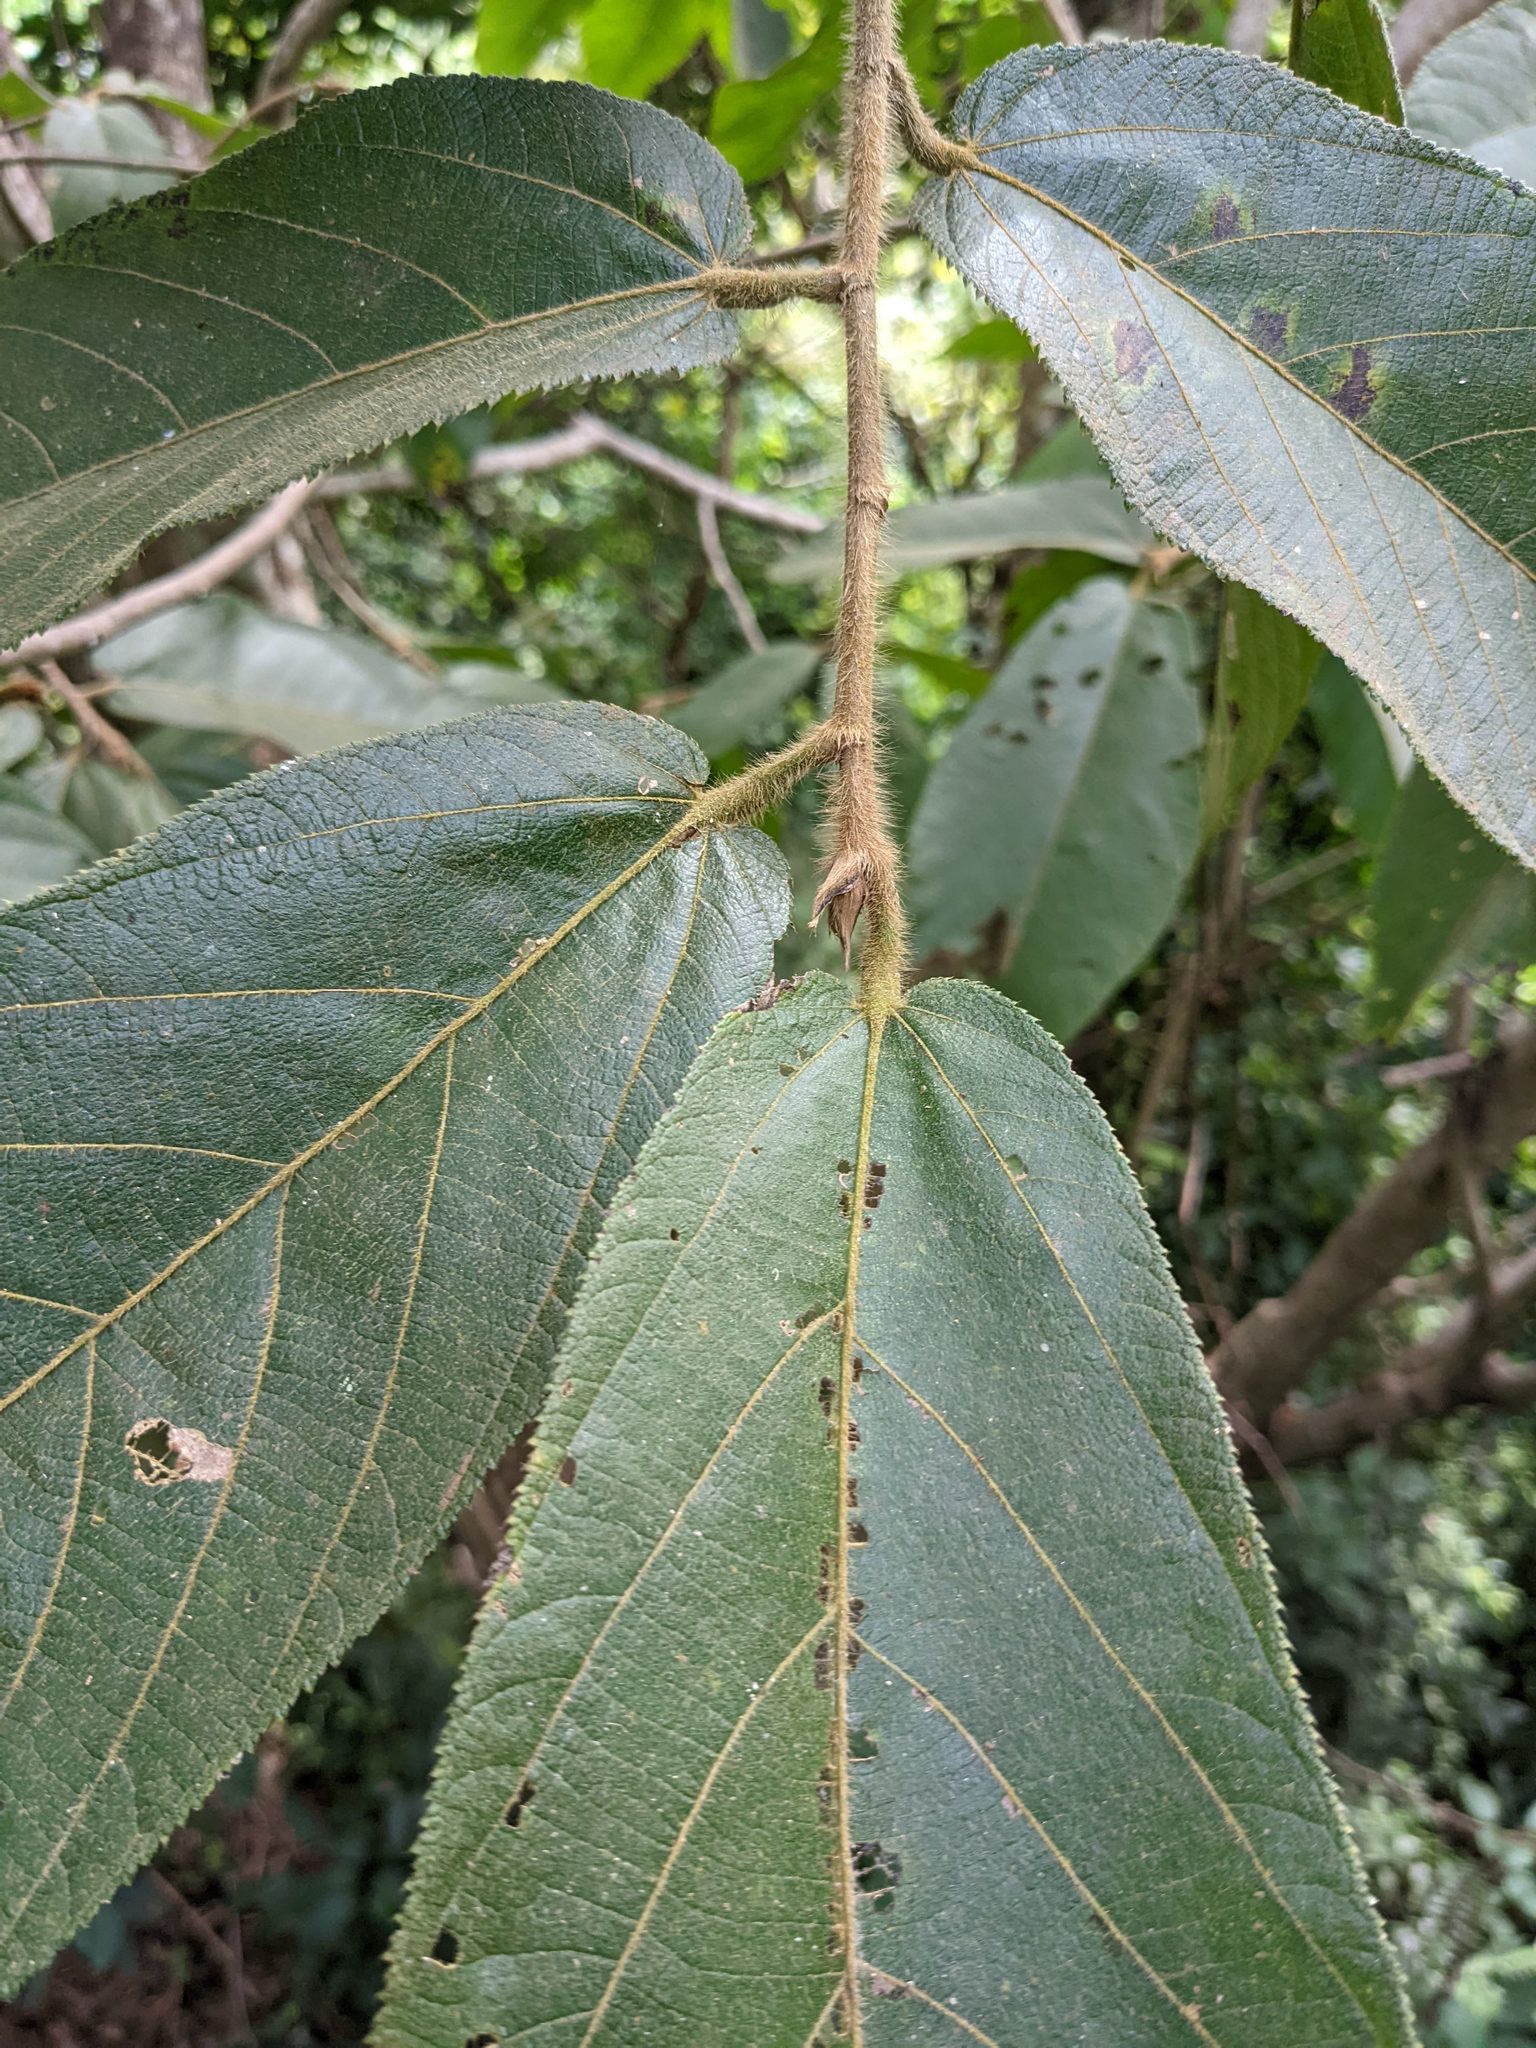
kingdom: Plantae
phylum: Tracheophyta
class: Magnoliopsida
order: Malvales
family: Malvaceae
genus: Apeiba
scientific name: Apeiba tibourbou
